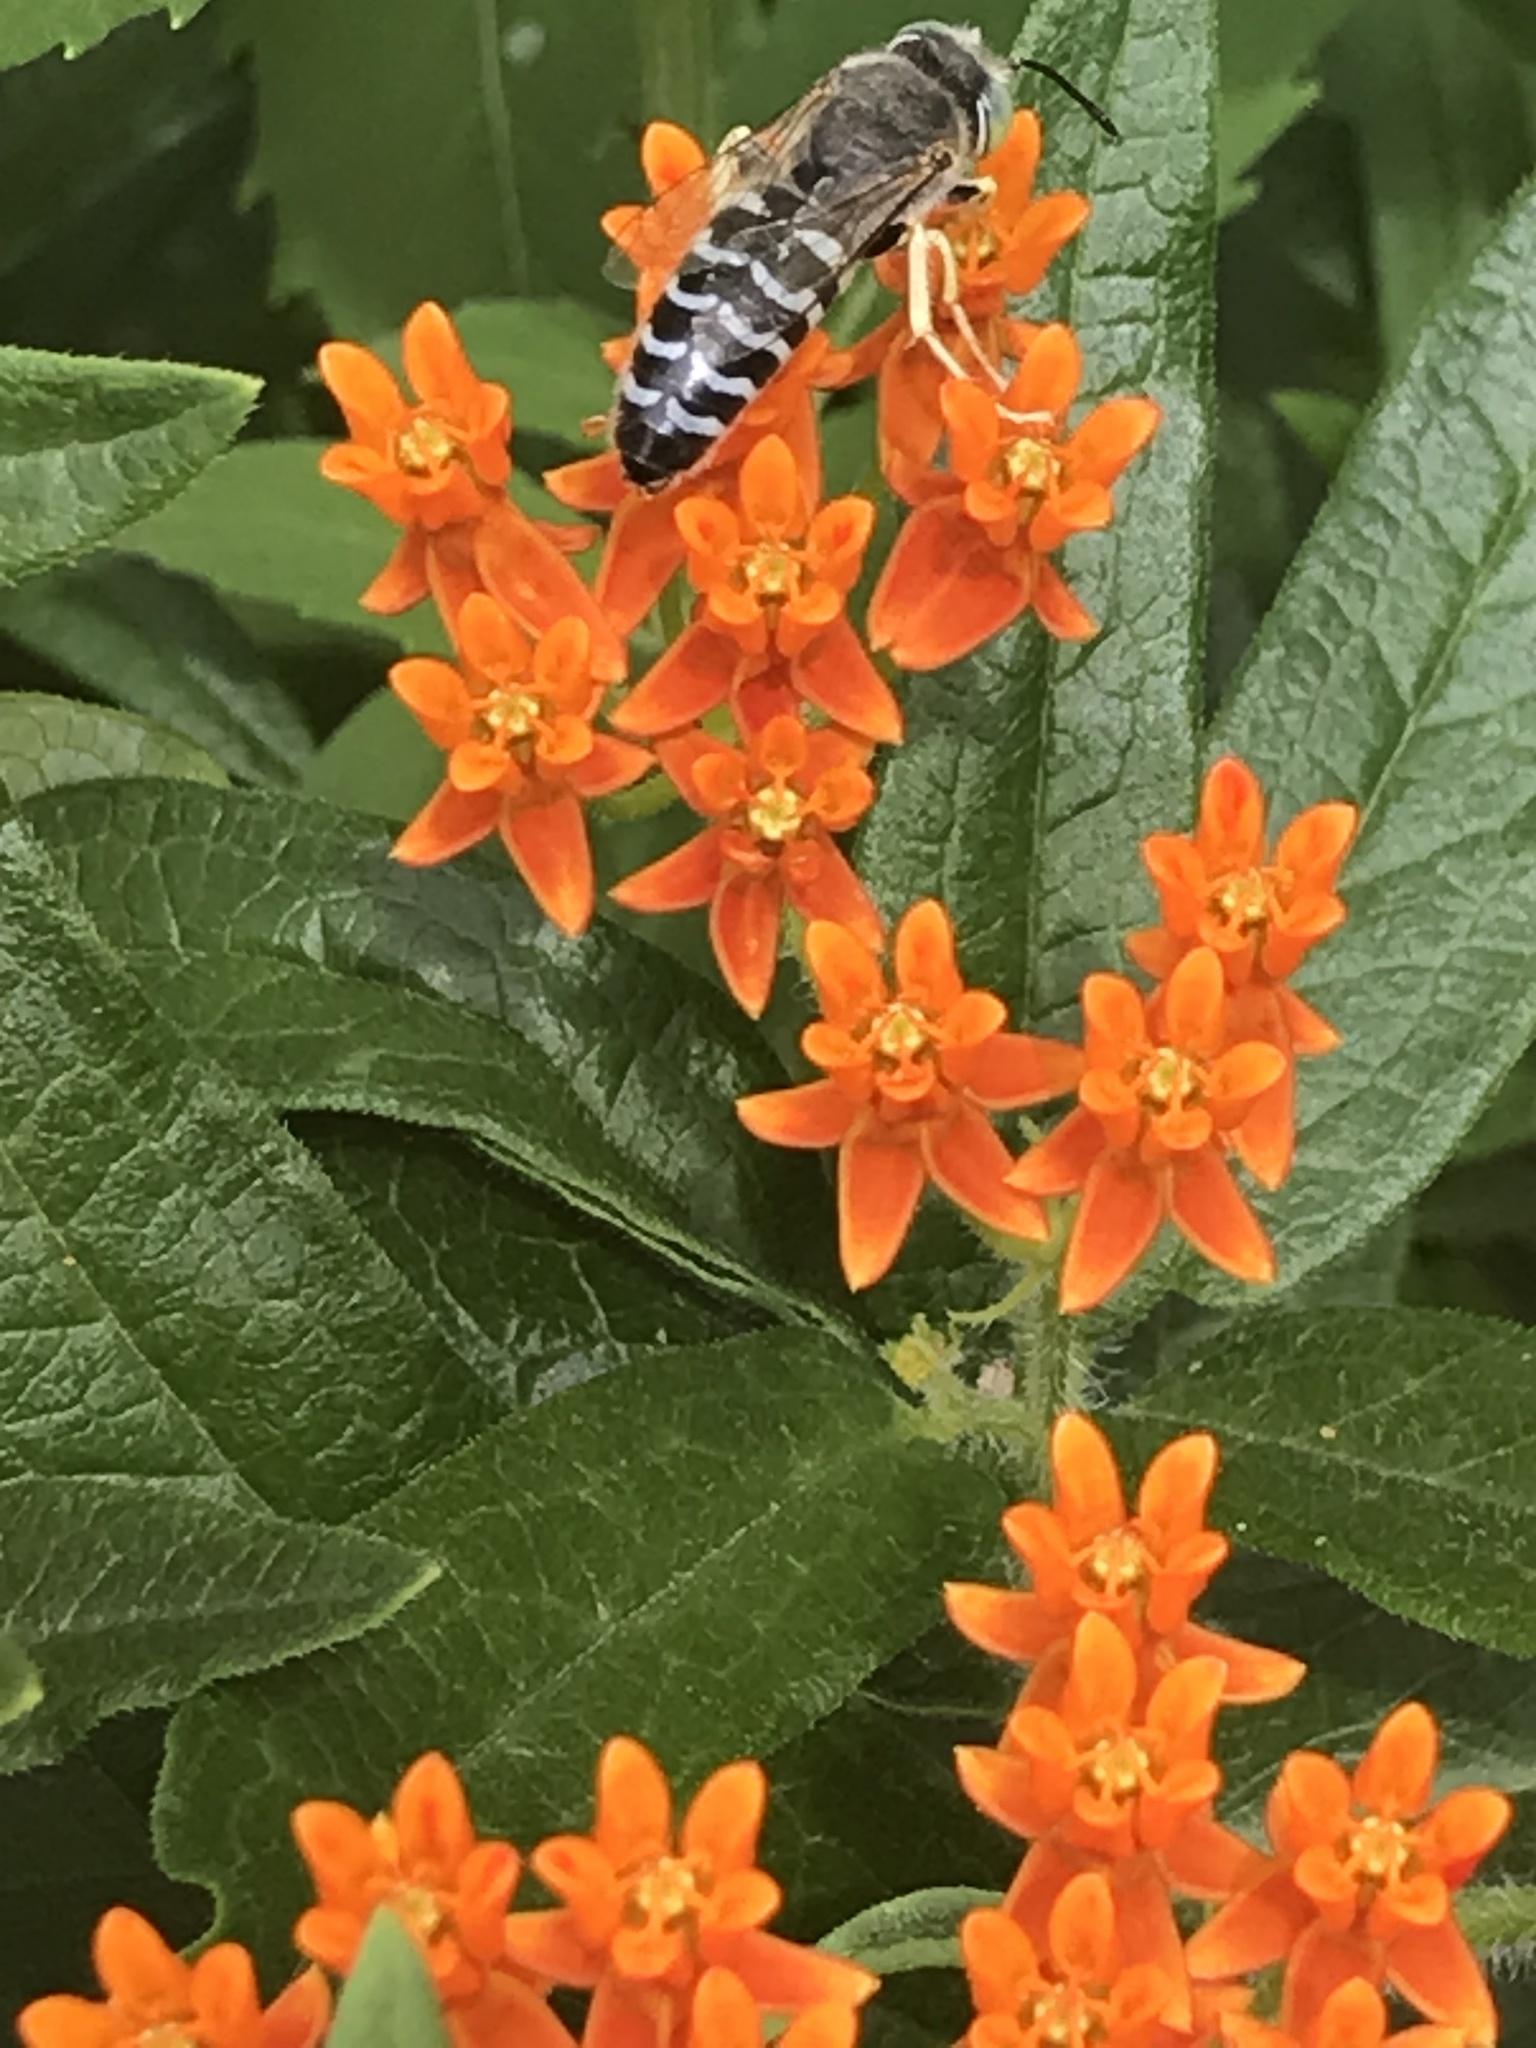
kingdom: Animalia
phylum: Arthropoda
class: Insecta
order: Hymenoptera
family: Crabronidae
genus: Bembix
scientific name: Bembix americana
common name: American sand wasp
